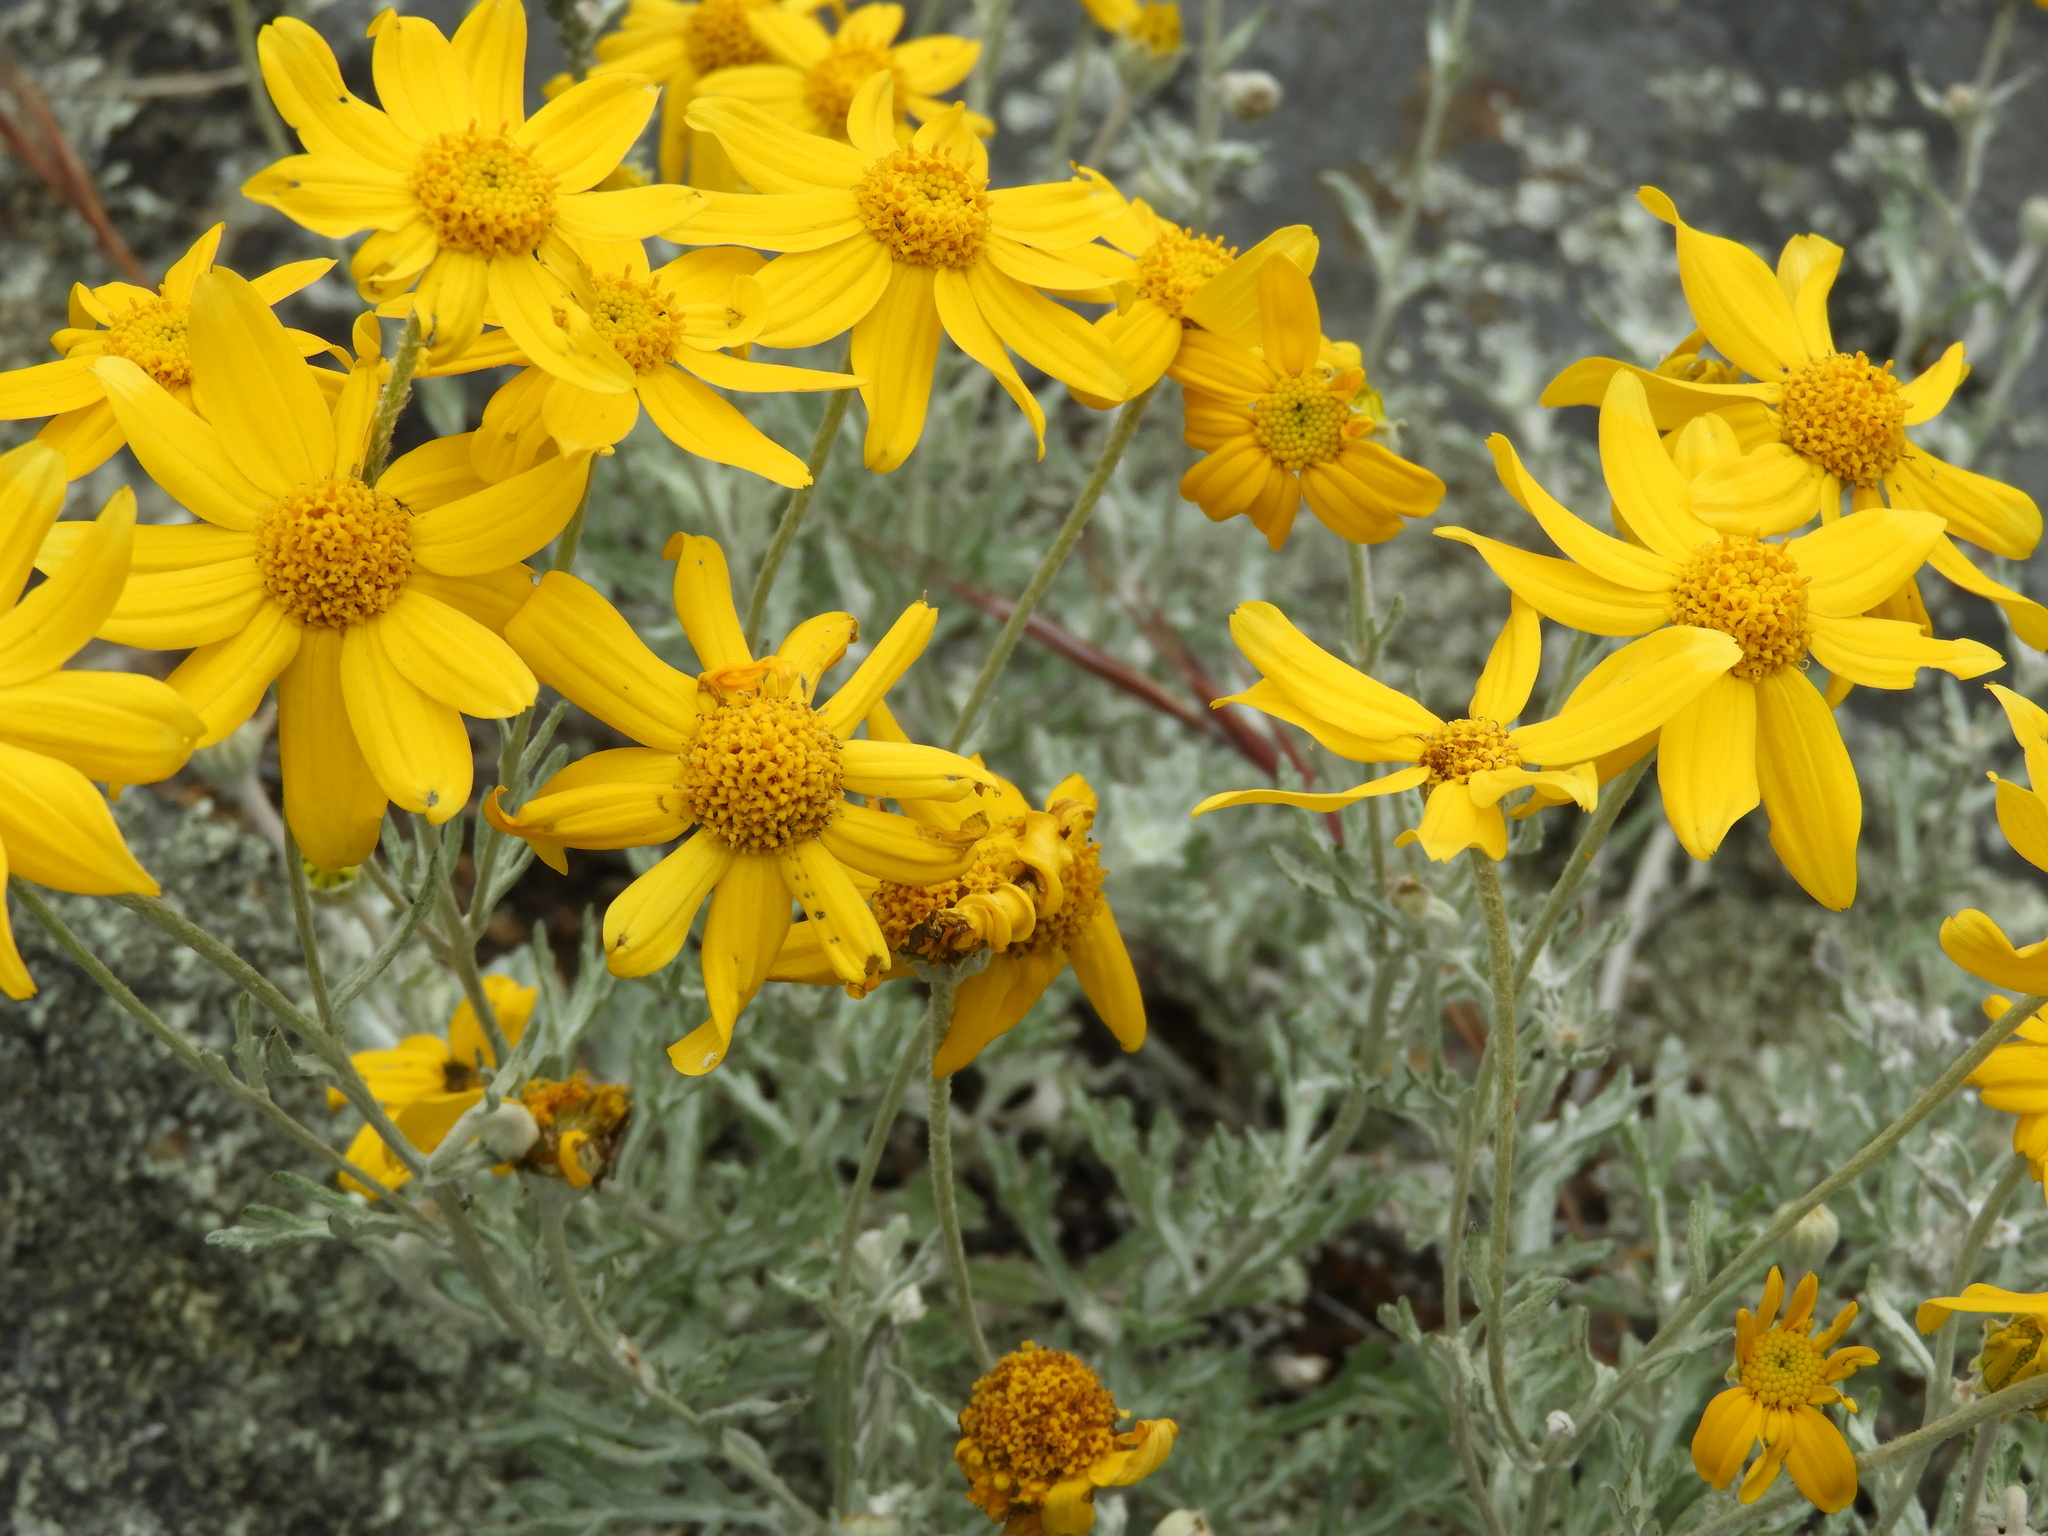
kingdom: Plantae
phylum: Tracheophyta
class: Magnoliopsida
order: Asterales
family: Asteraceae
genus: Eriophyllum
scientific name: Eriophyllum lanatum
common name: Common woolly-sunflower
